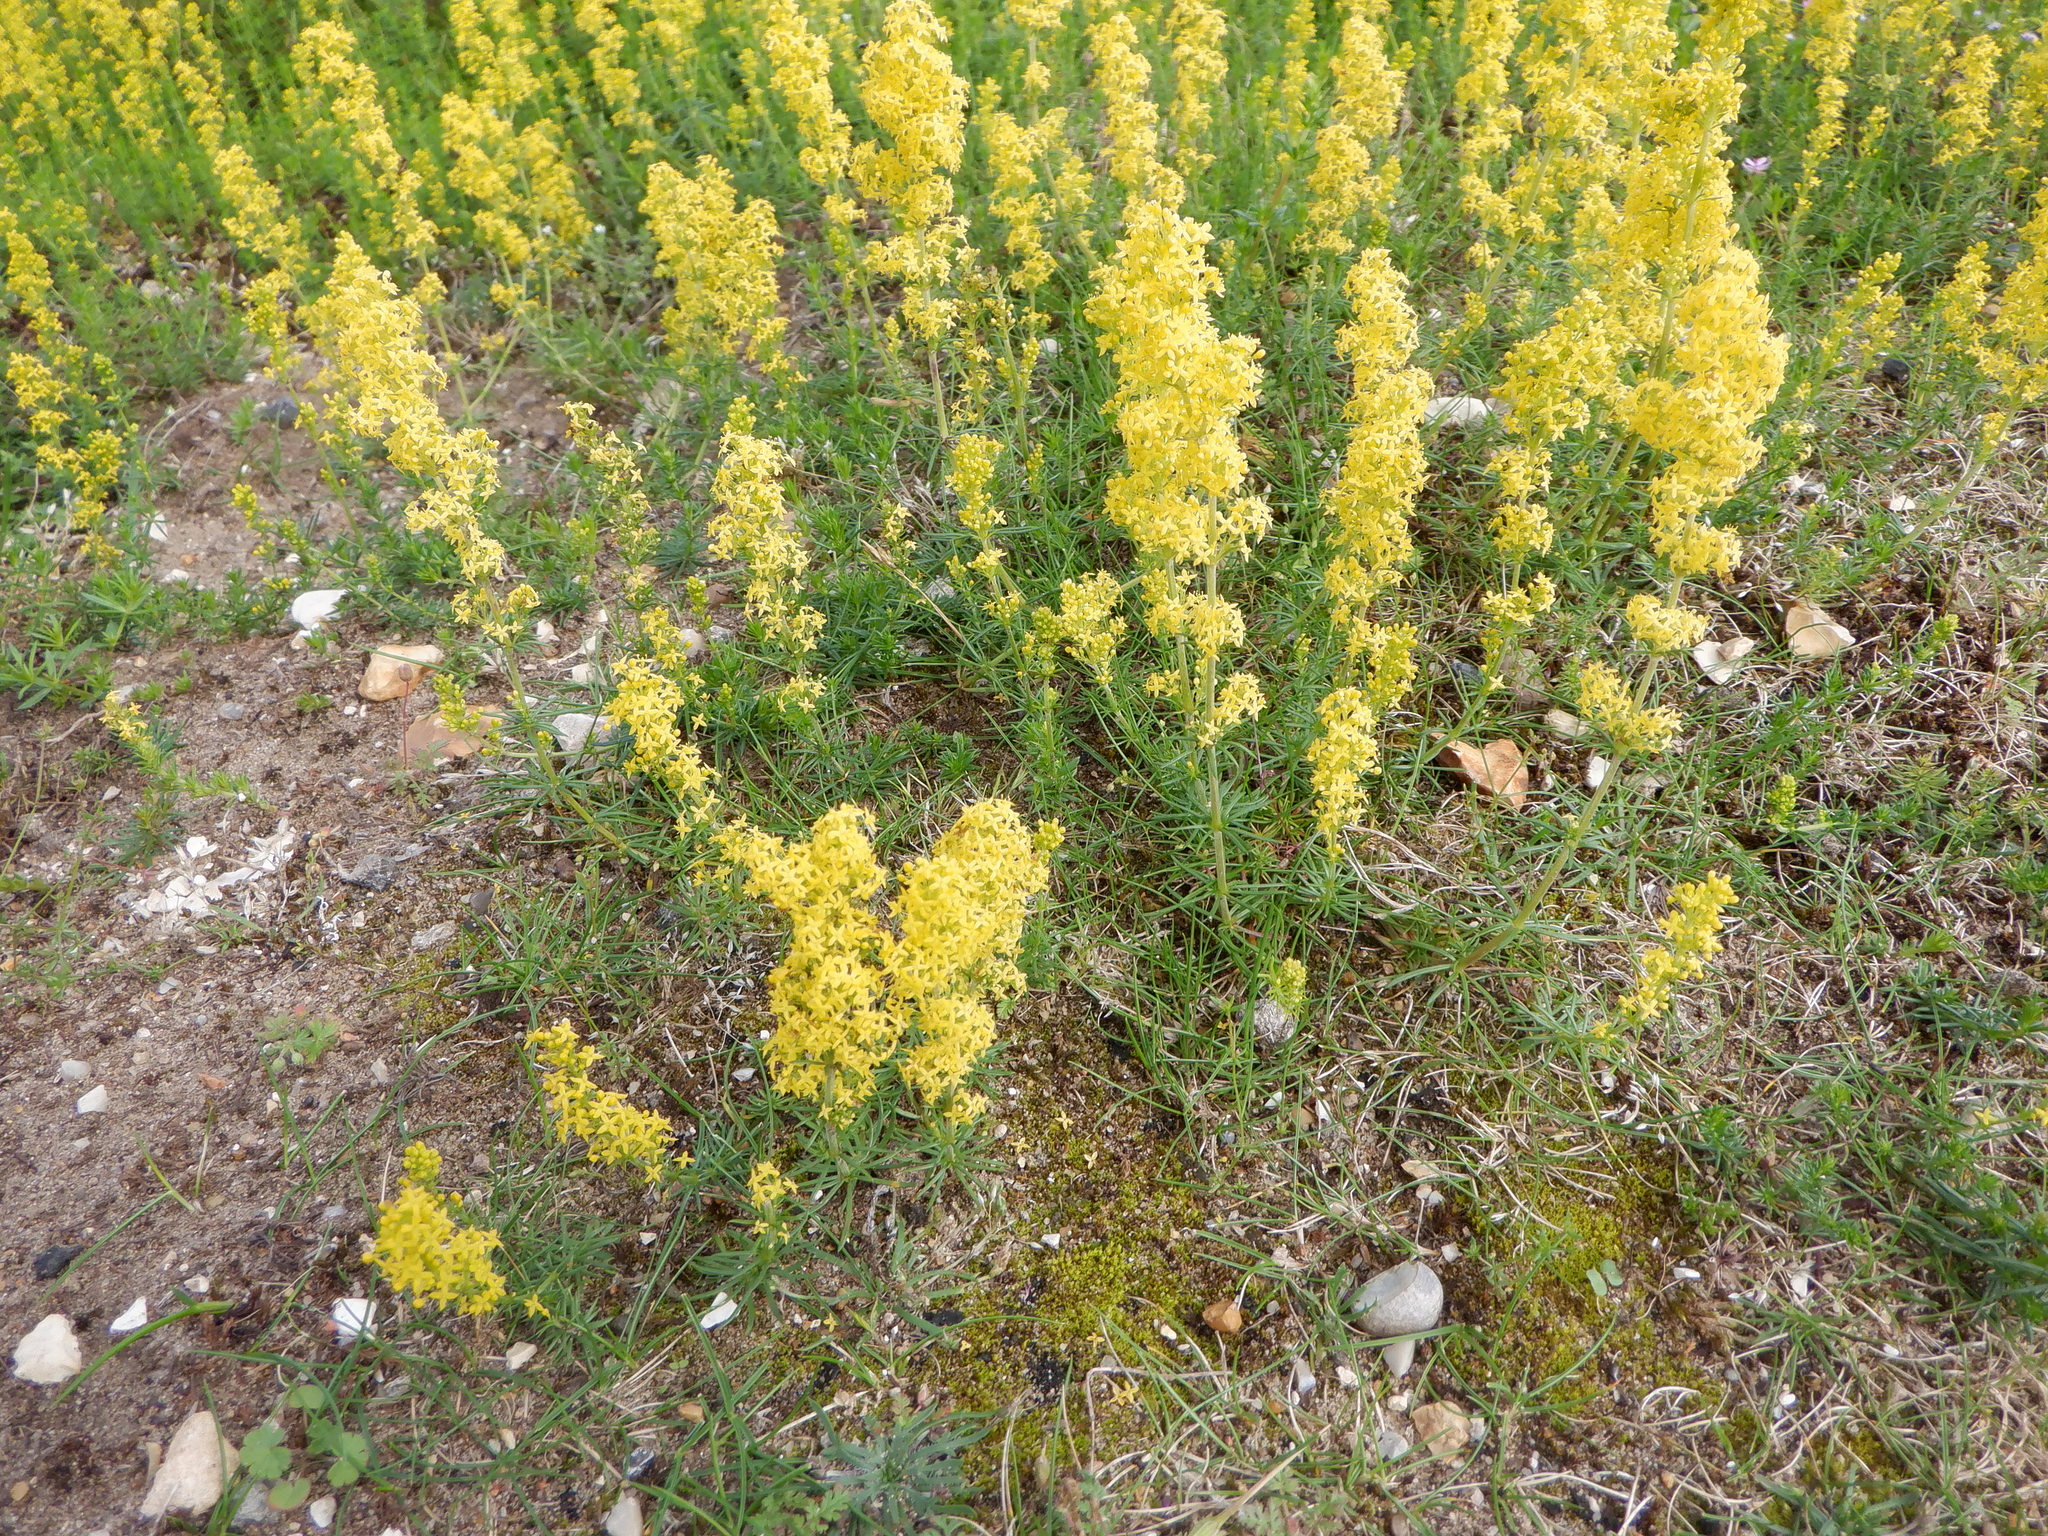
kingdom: Plantae
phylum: Tracheophyta
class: Magnoliopsida
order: Gentianales
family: Rubiaceae
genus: Galium
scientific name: Galium verum
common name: Lady's bedstraw
